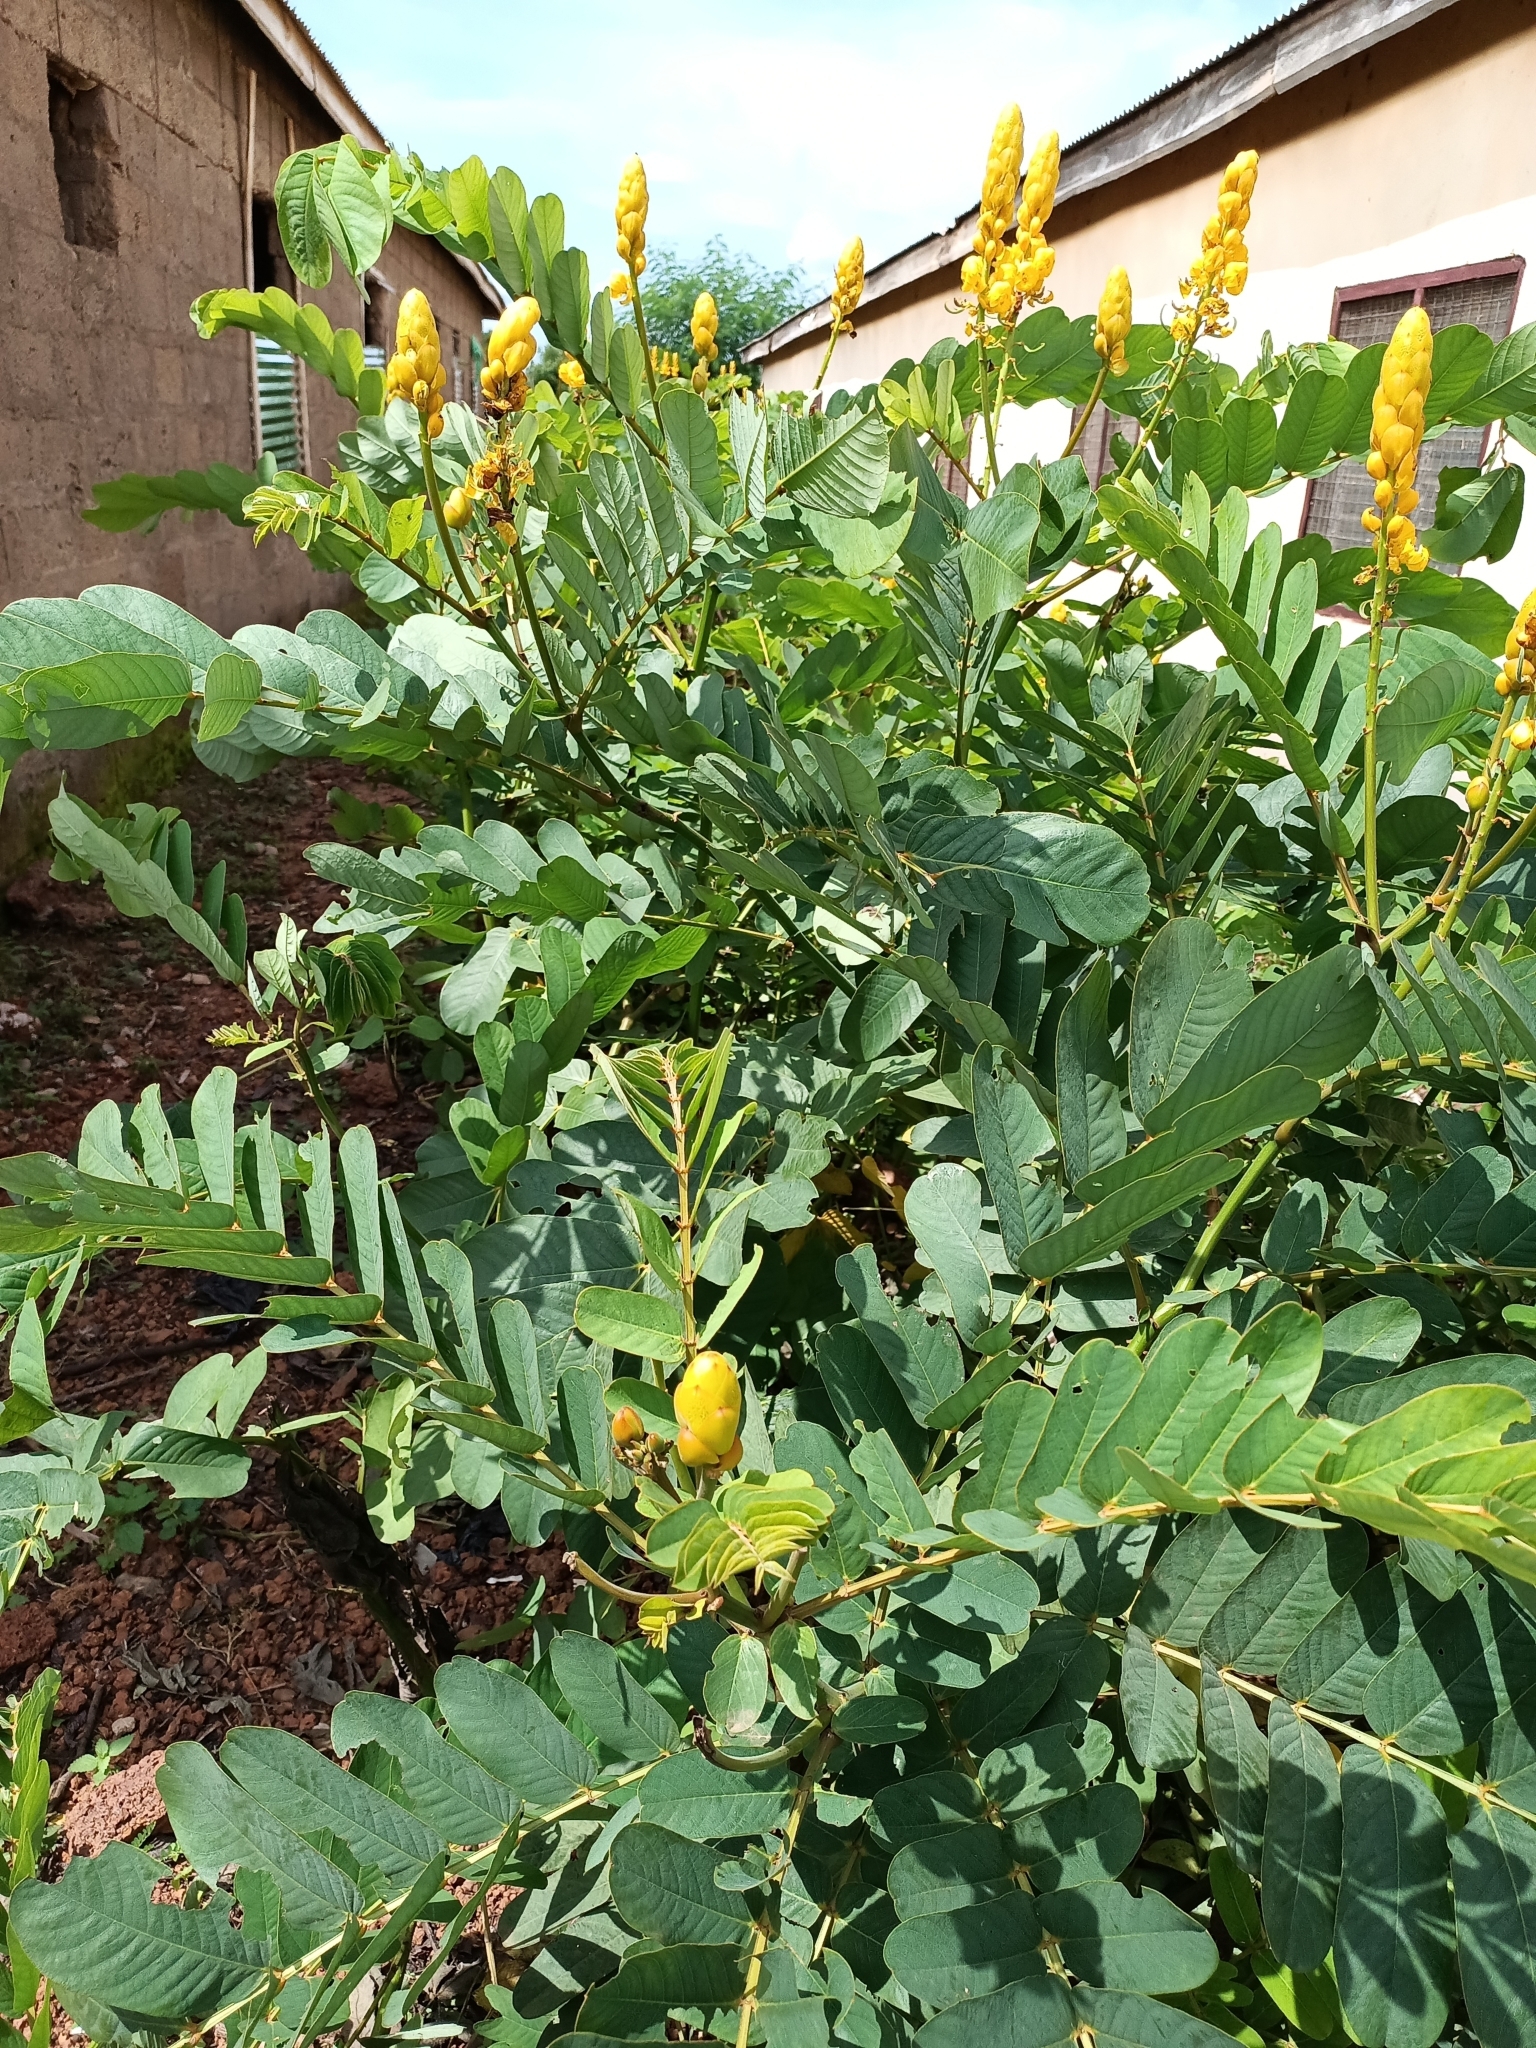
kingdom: Plantae
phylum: Tracheophyta
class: Magnoliopsida
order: Fabales
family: Fabaceae
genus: Senna
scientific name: Senna alata
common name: Emperor's candlesticks
